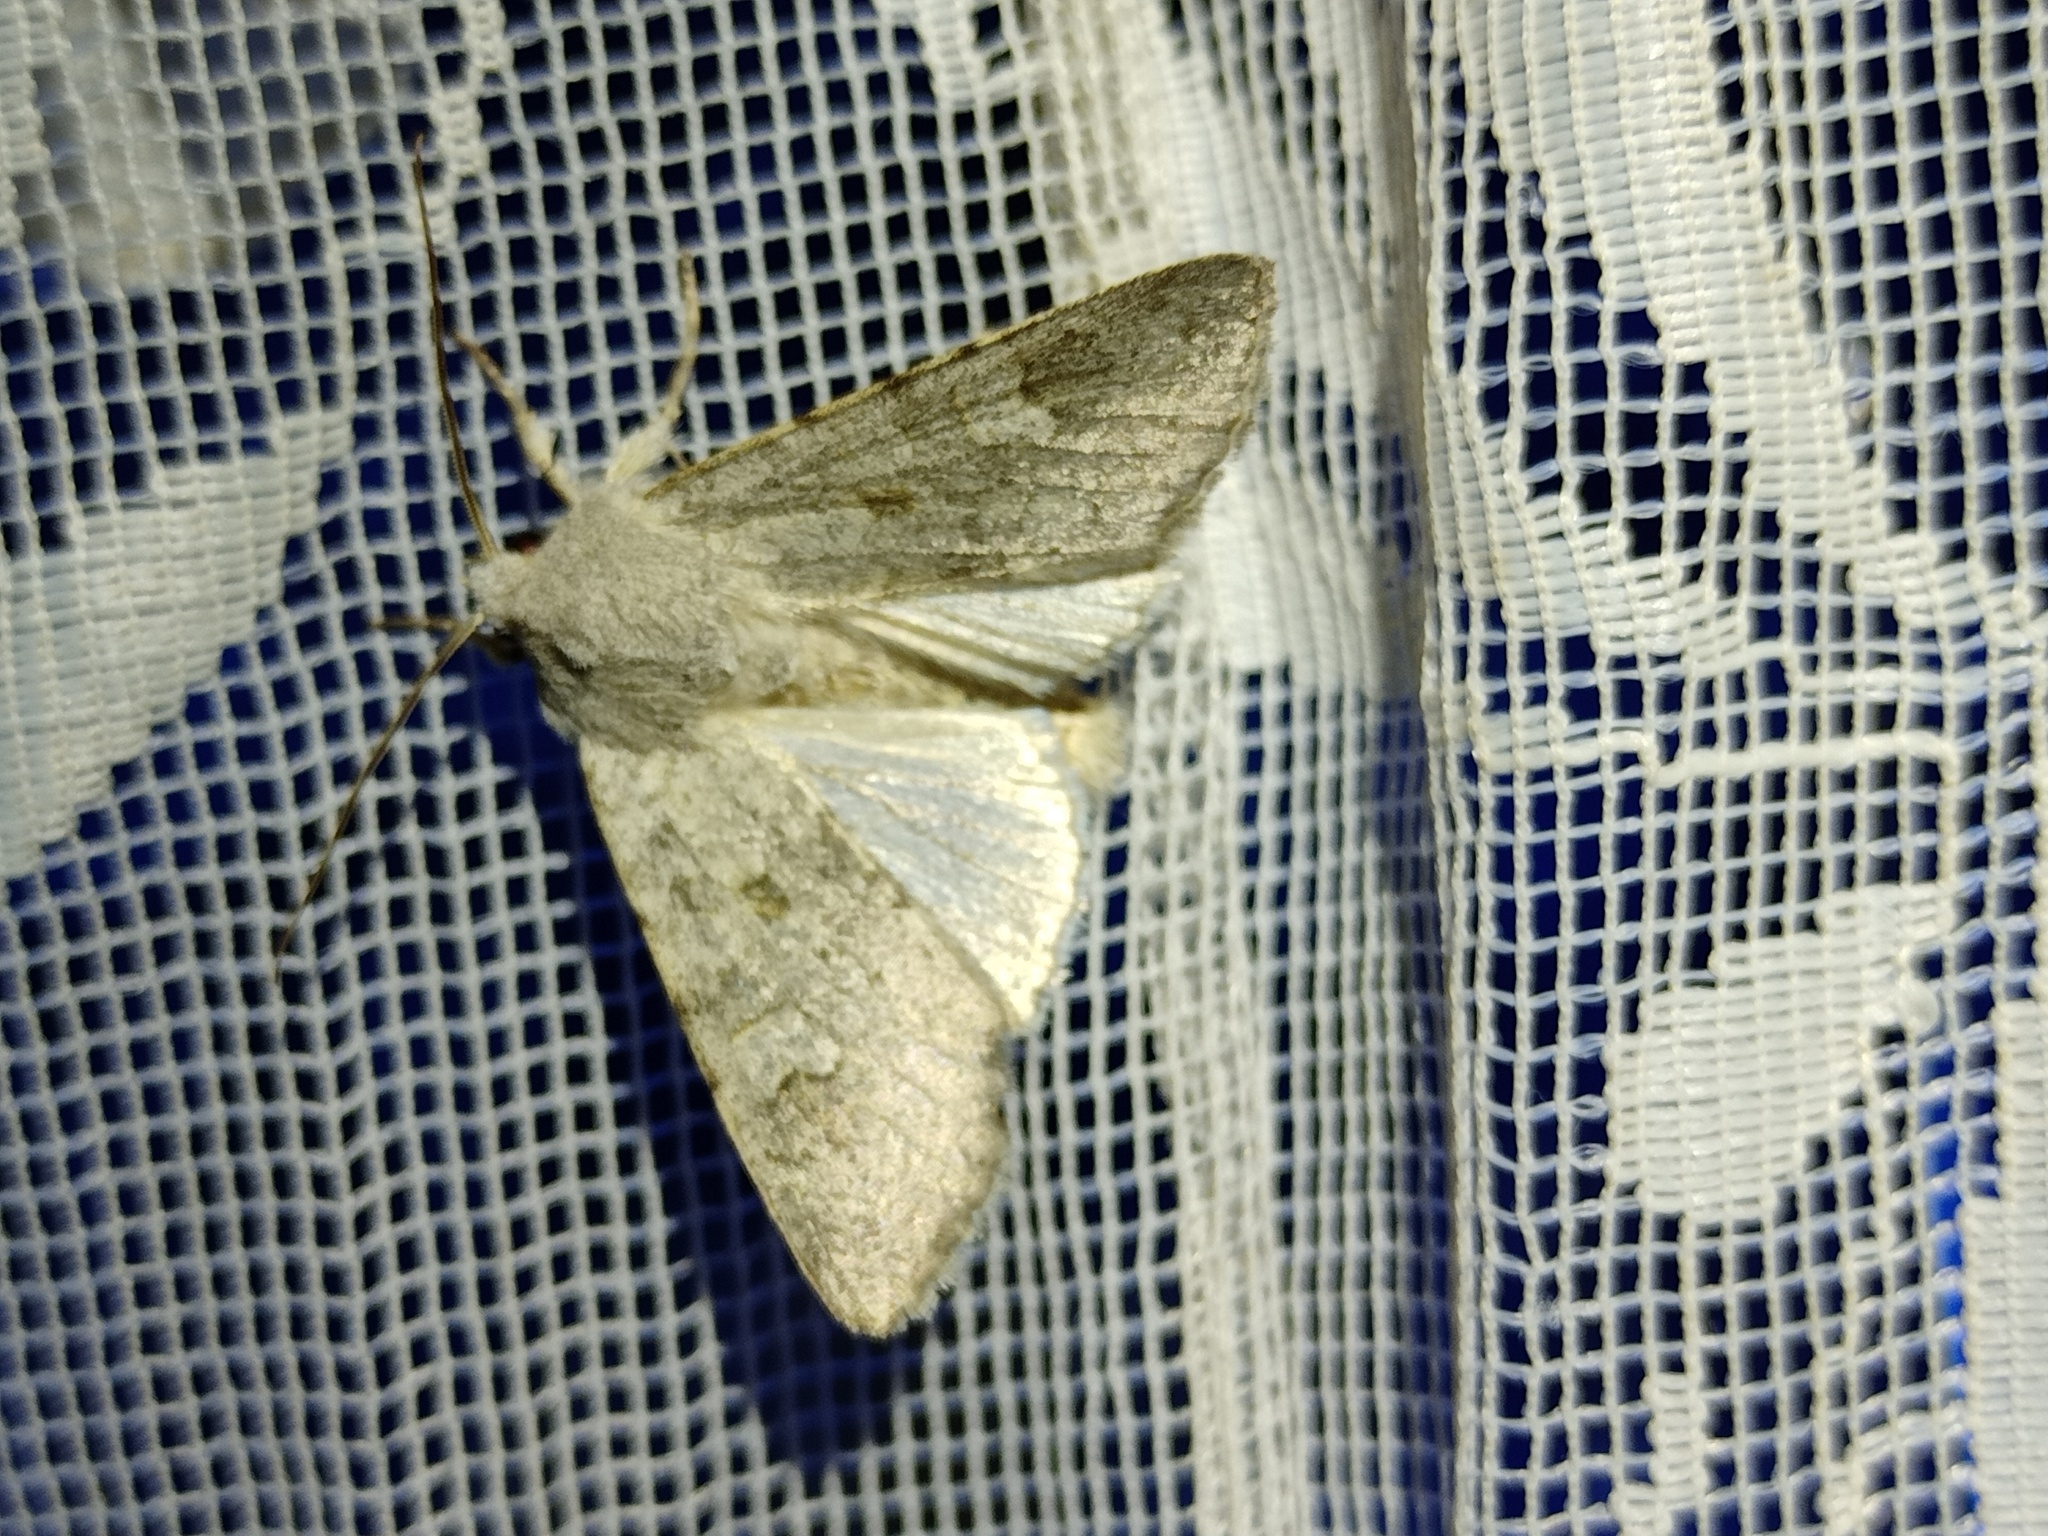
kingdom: Animalia
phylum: Arthropoda
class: Insecta
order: Lepidoptera
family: Noctuidae
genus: Ammoconia
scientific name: Ammoconia senex
